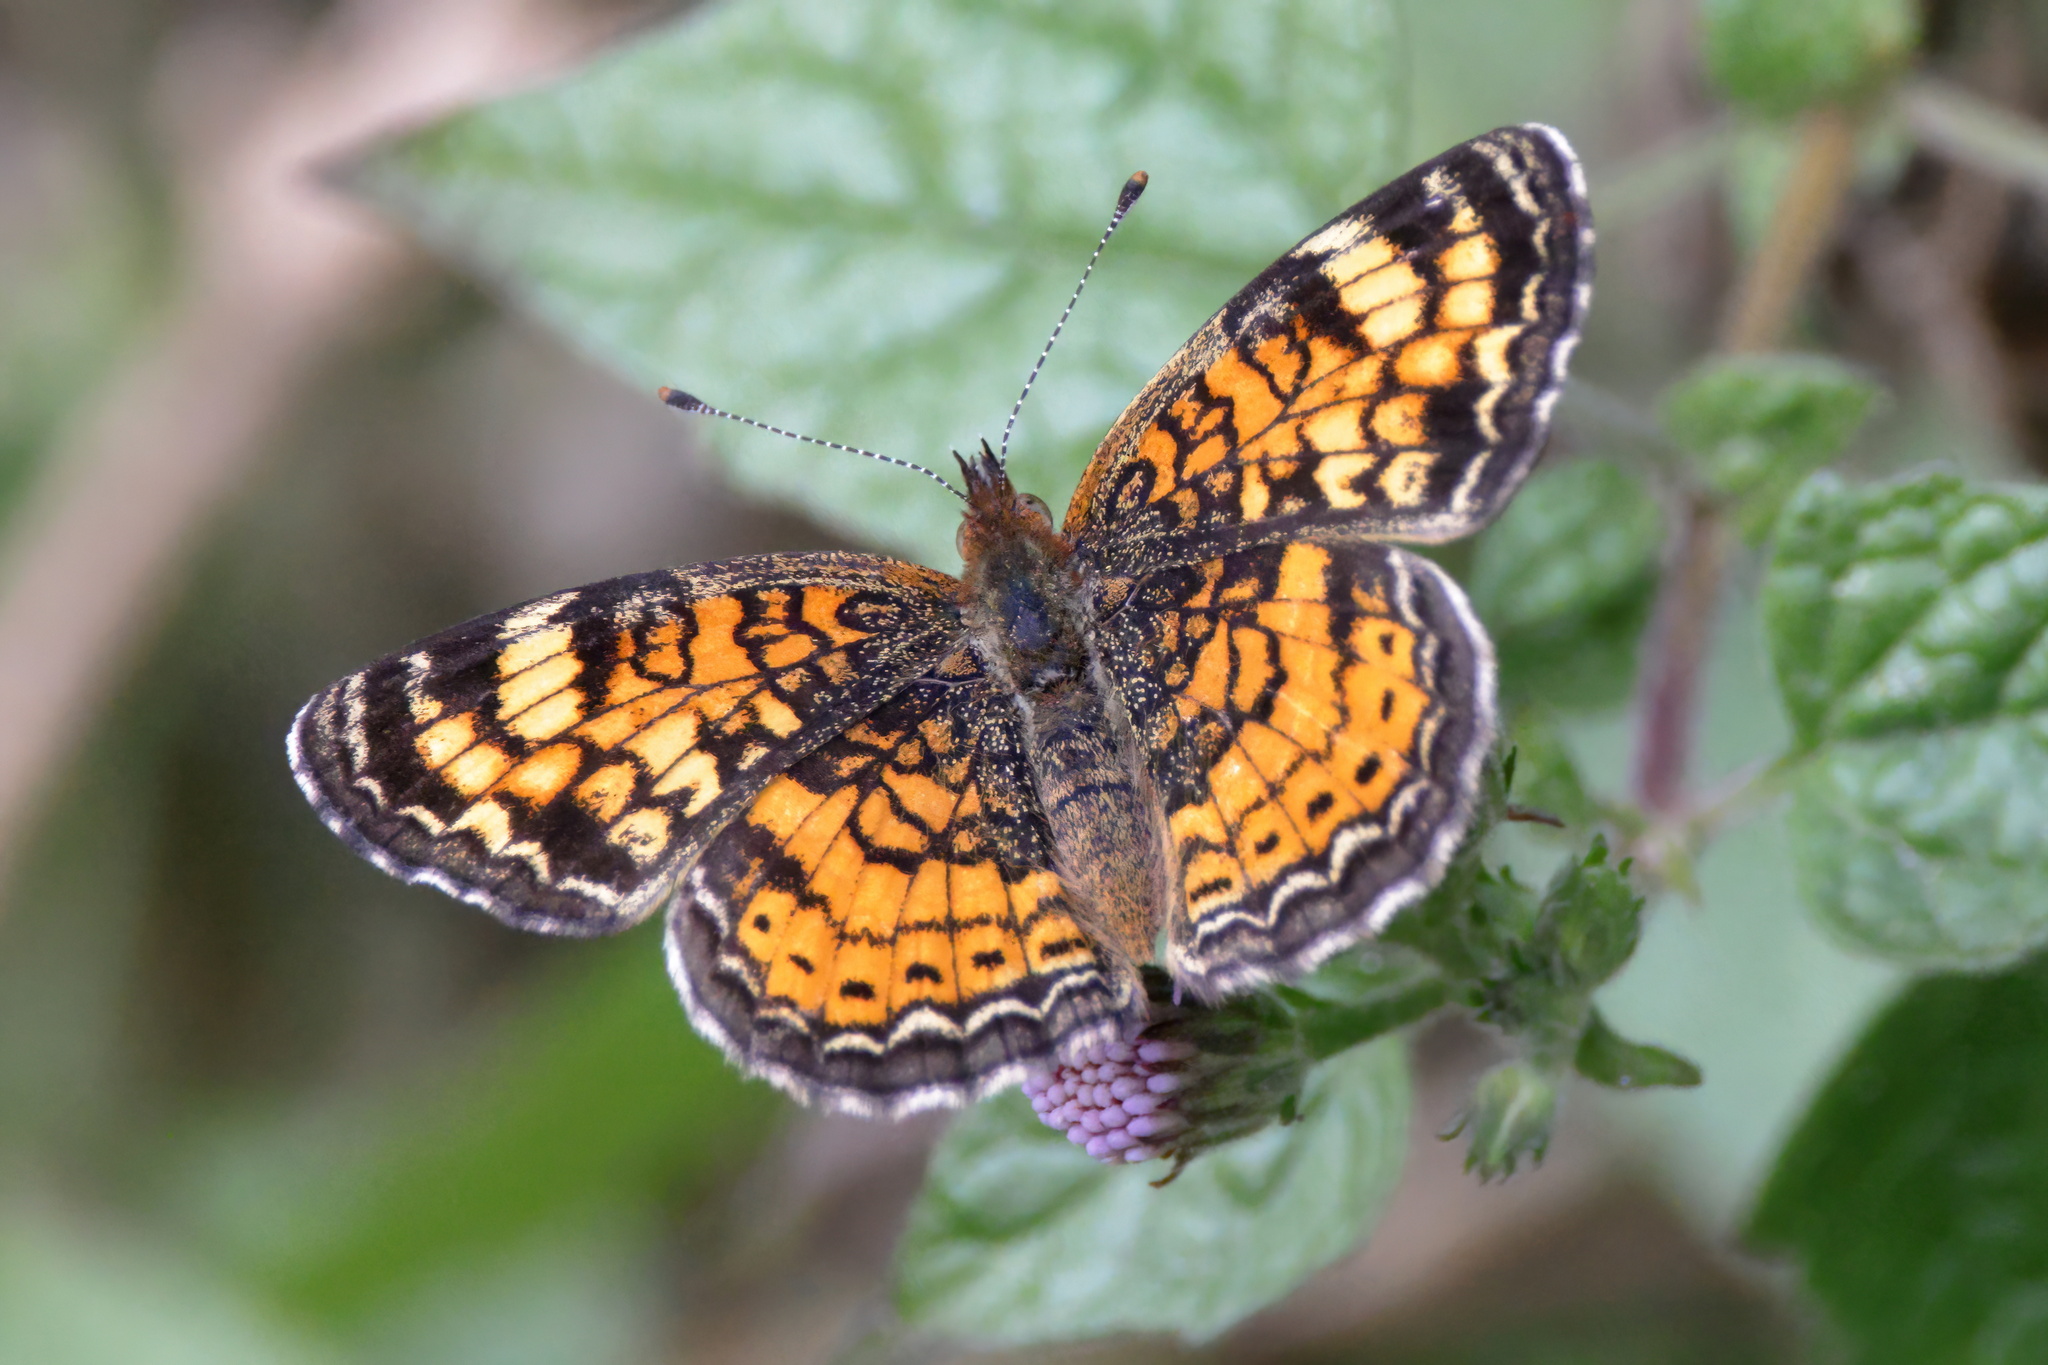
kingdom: Animalia
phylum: Arthropoda
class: Insecta
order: Lepidoptera
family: Nymphalidae
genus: Phyciodes
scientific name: Phyciodes tharos
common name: Pearl crescent
